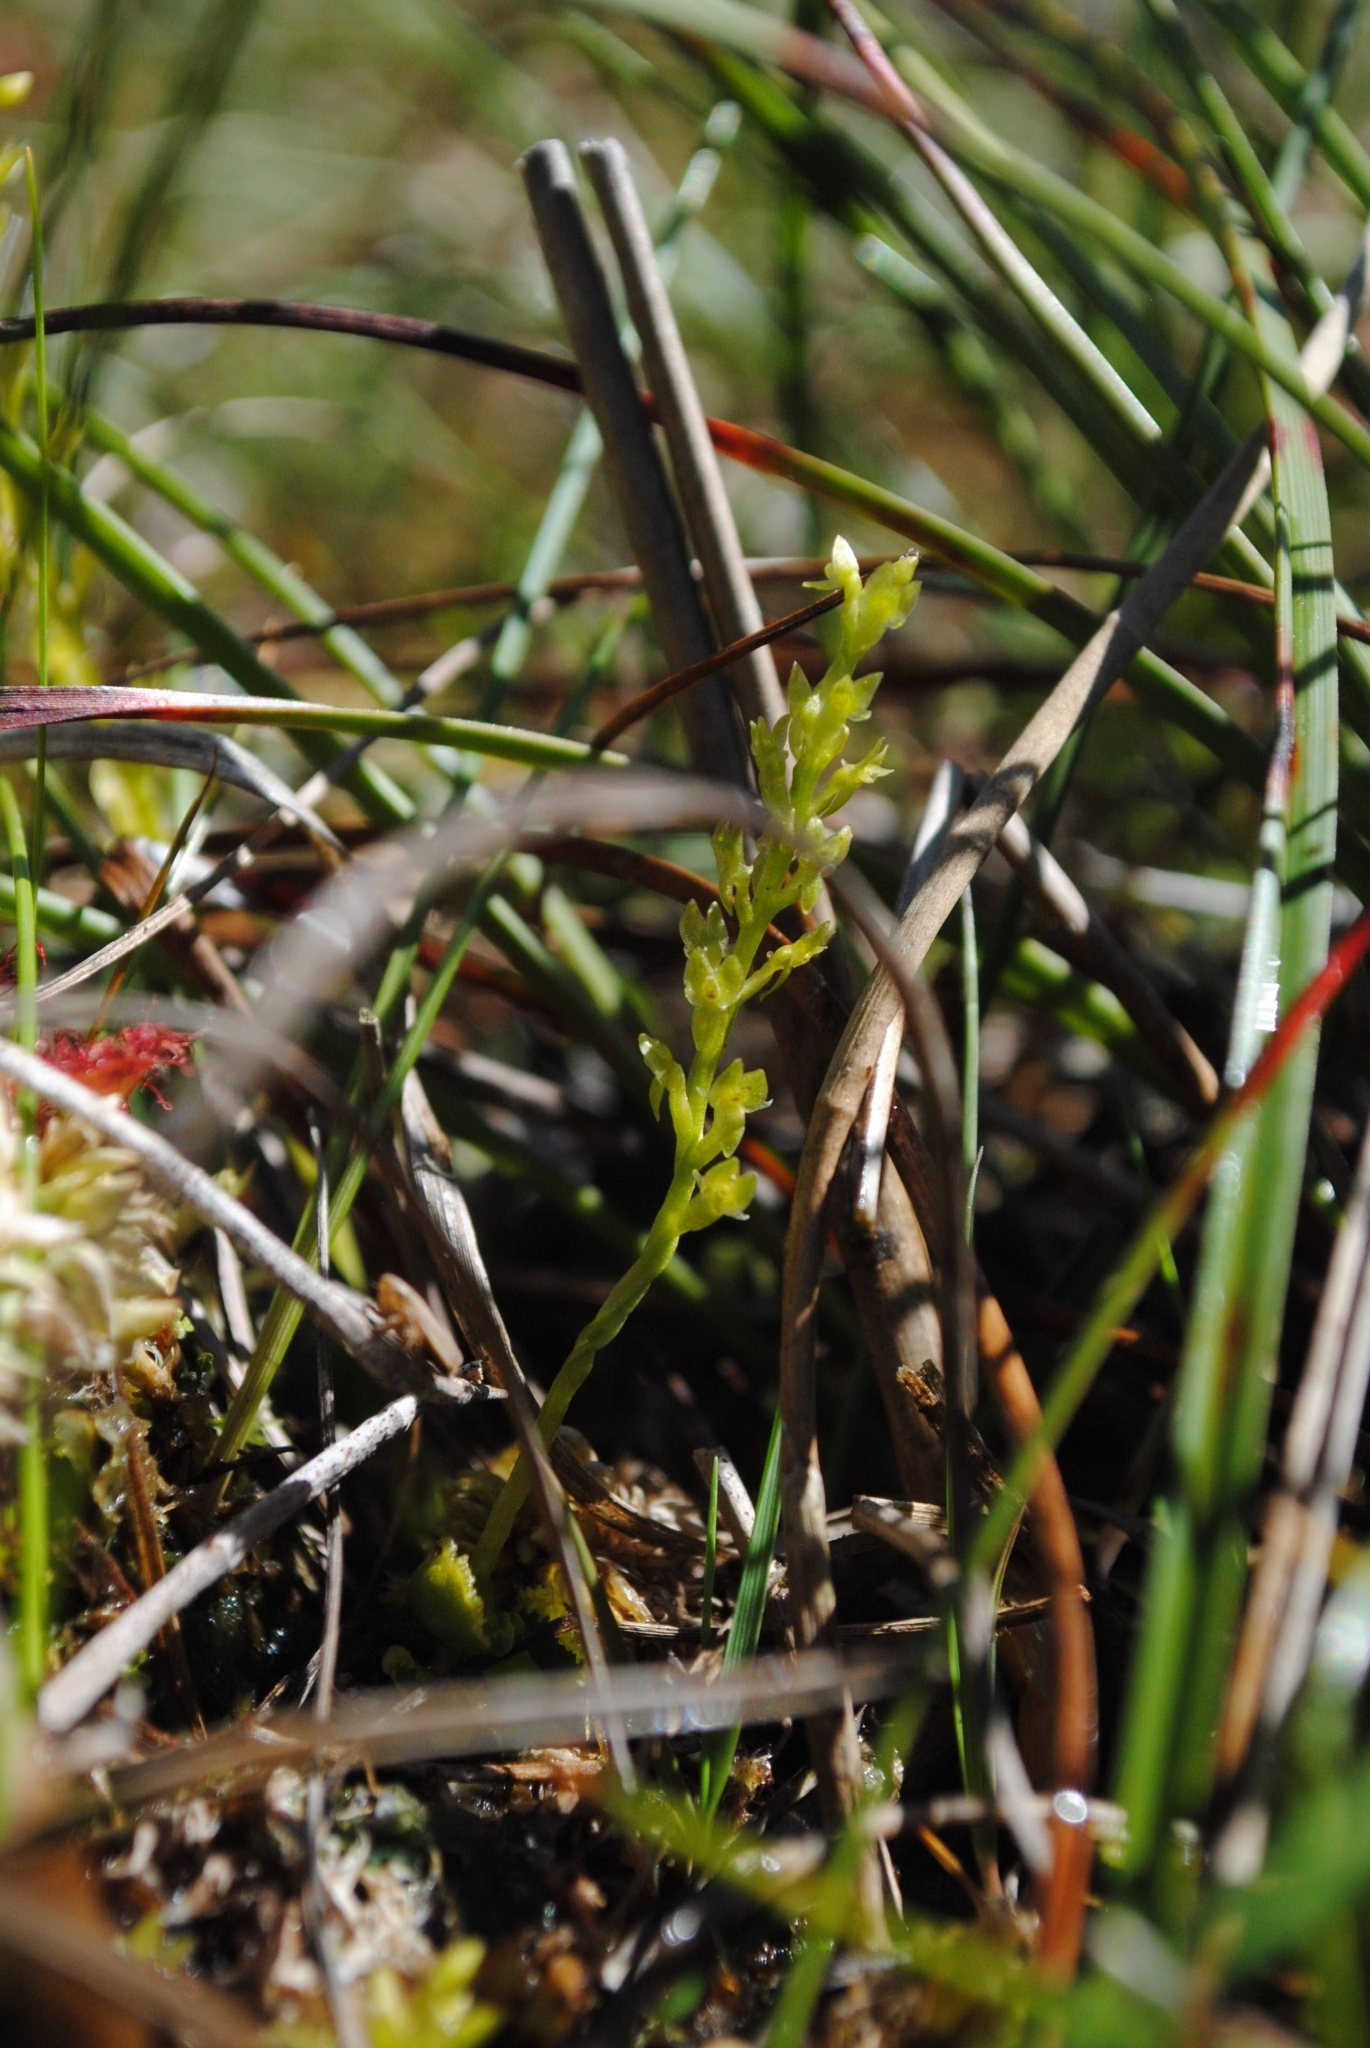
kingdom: Plantae
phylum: Tracheophyta
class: Liliopsida
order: Asparagales
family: Orchidaceae
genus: Hammarbya
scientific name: Hammarbya paludosa
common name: Bog orchid
